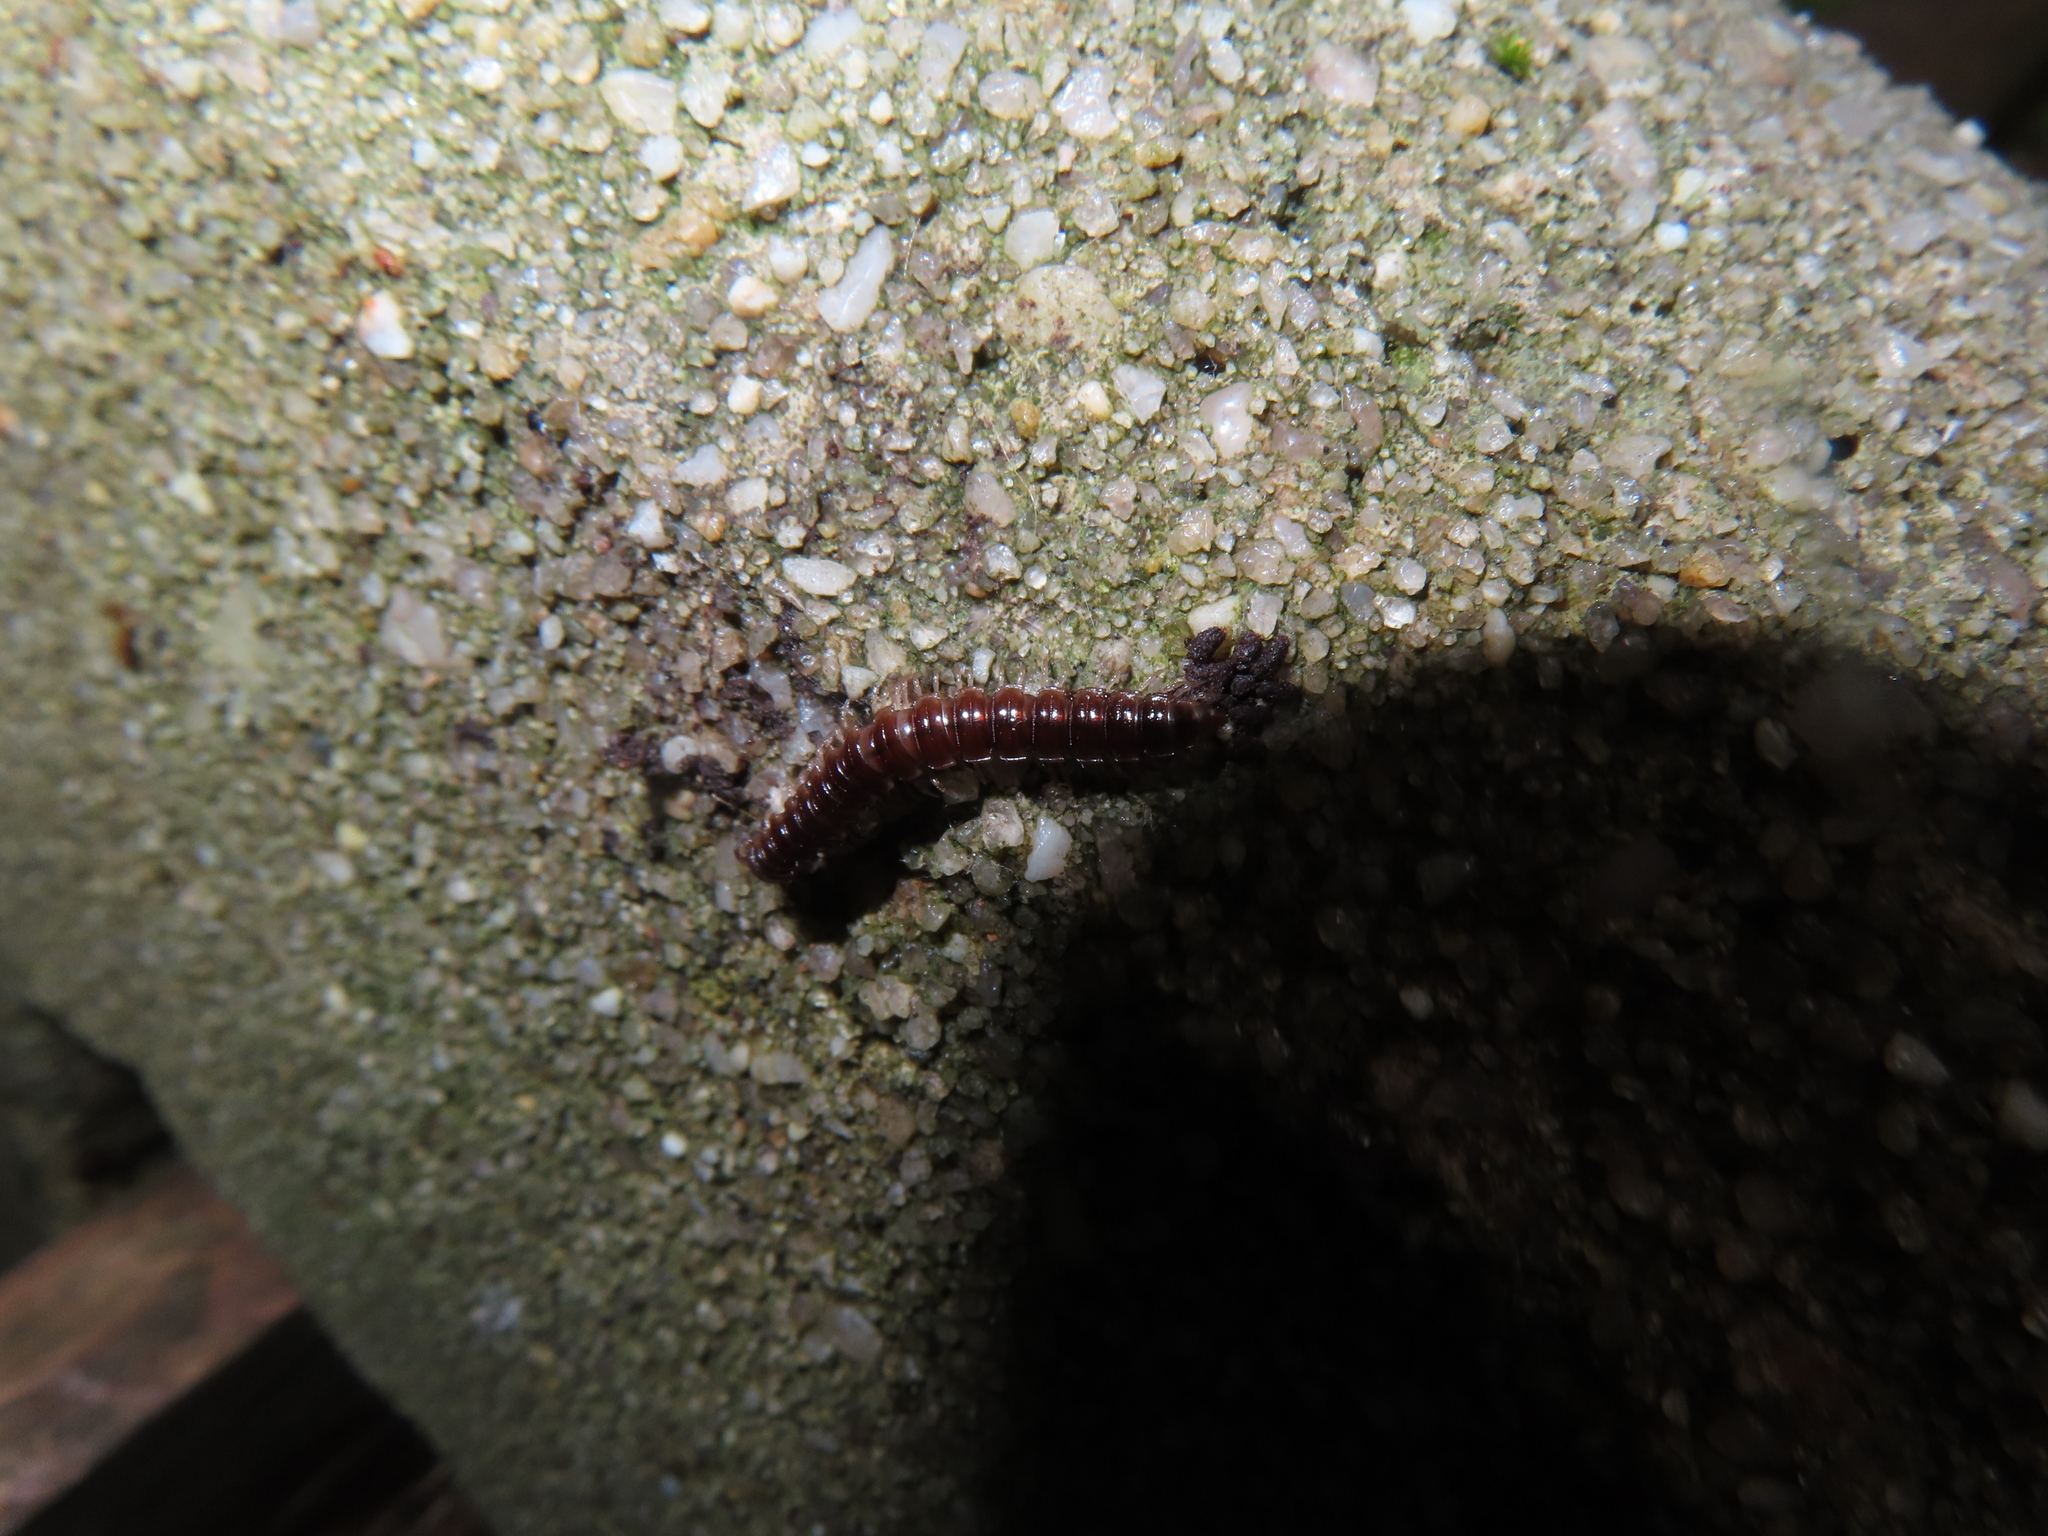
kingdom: Animalia
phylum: Arthropoda
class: Diplopoda
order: Polydesmida
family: Paradoxosomatidae
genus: Oxidus
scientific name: Oxidus gracilis
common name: Greenhouse millipede
